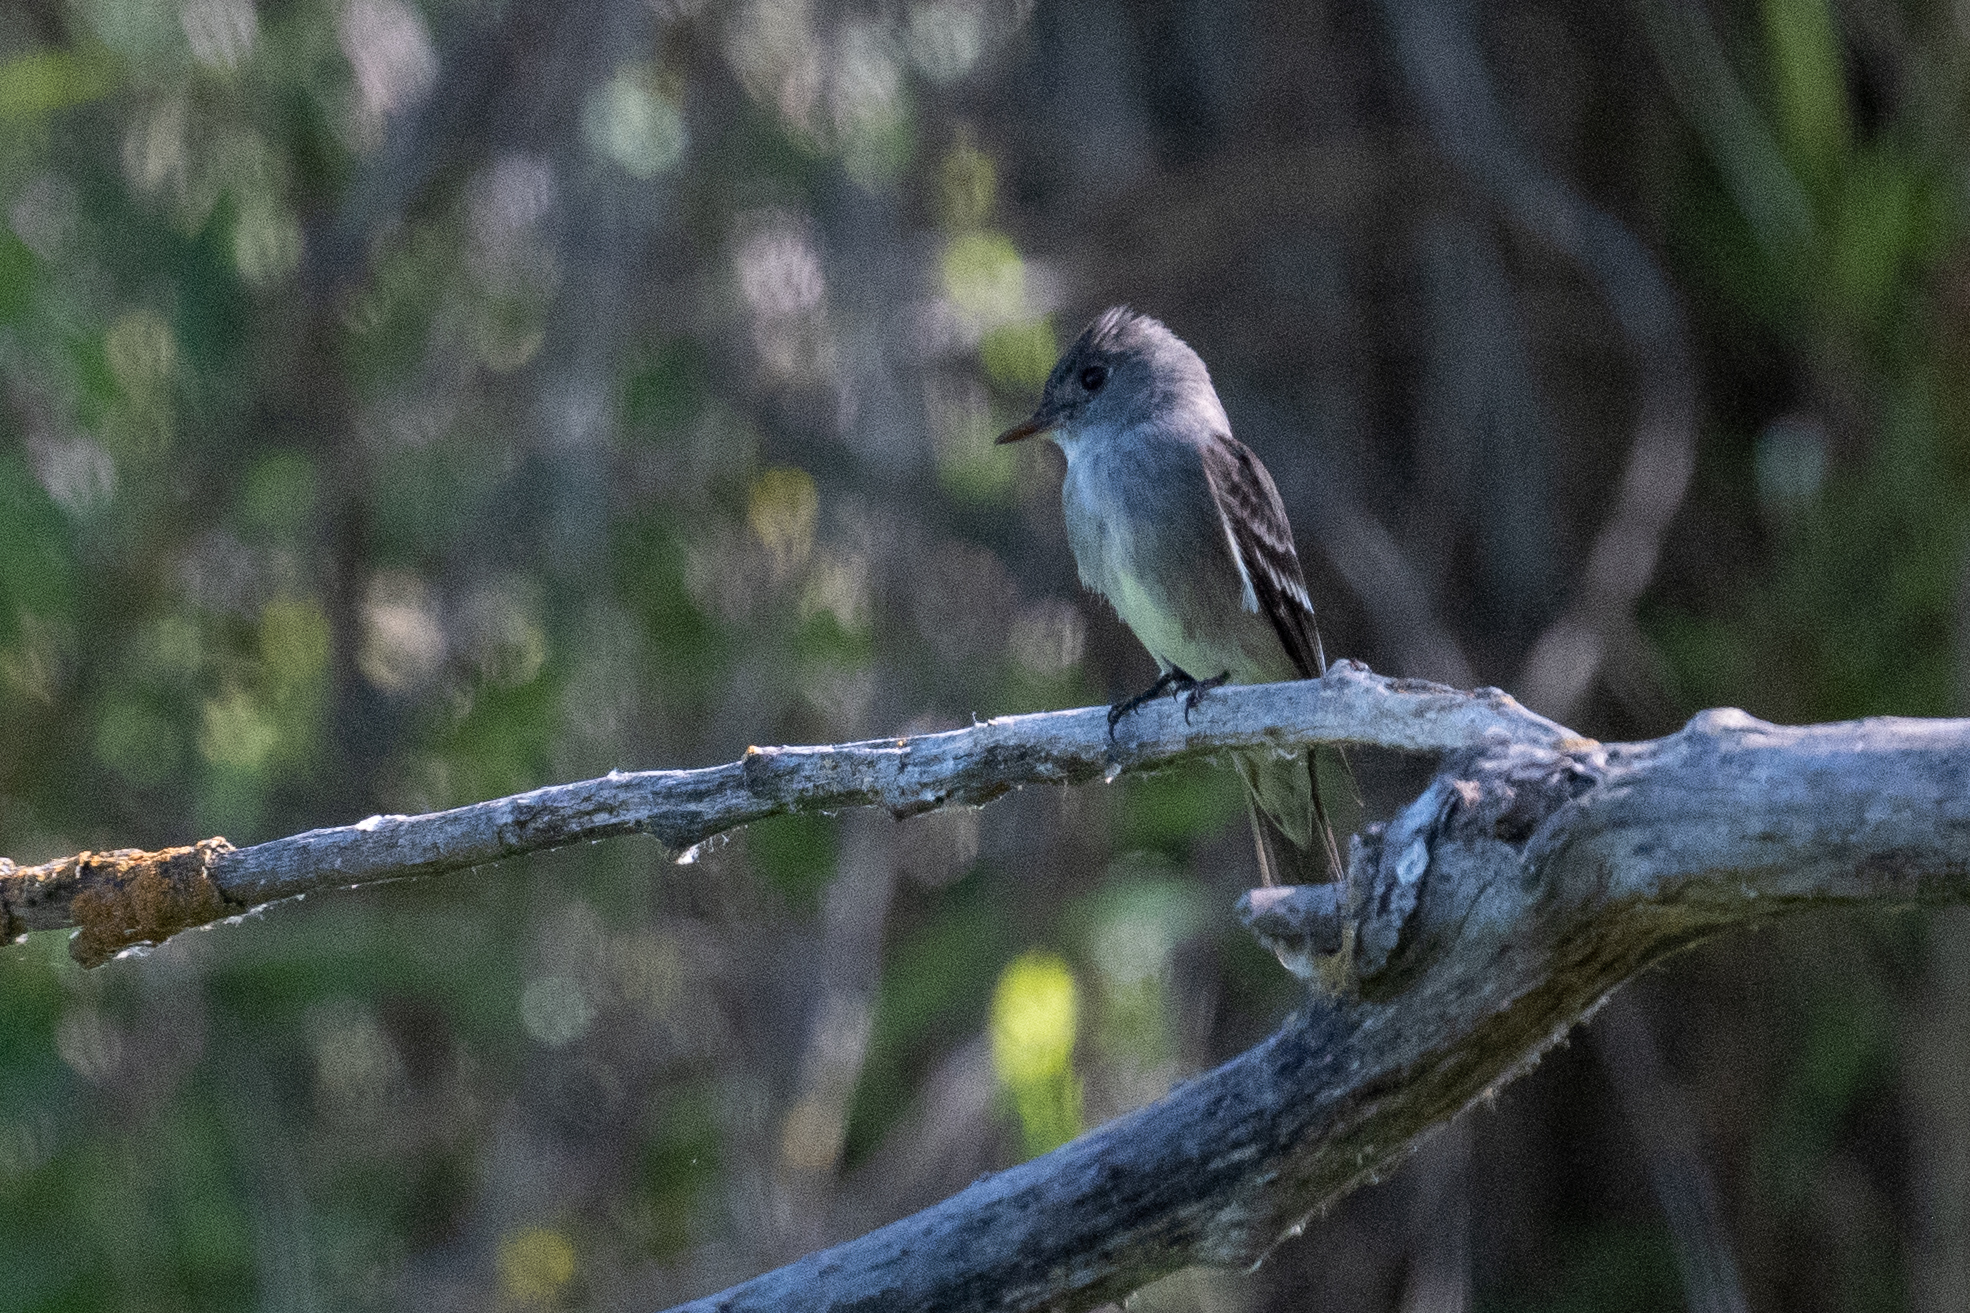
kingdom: Animalia
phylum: Chordata
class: Aves
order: Passeriformes
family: Tyrannidae
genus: Contopus
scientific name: Contopus sordidulus
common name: Western wood-pewee
